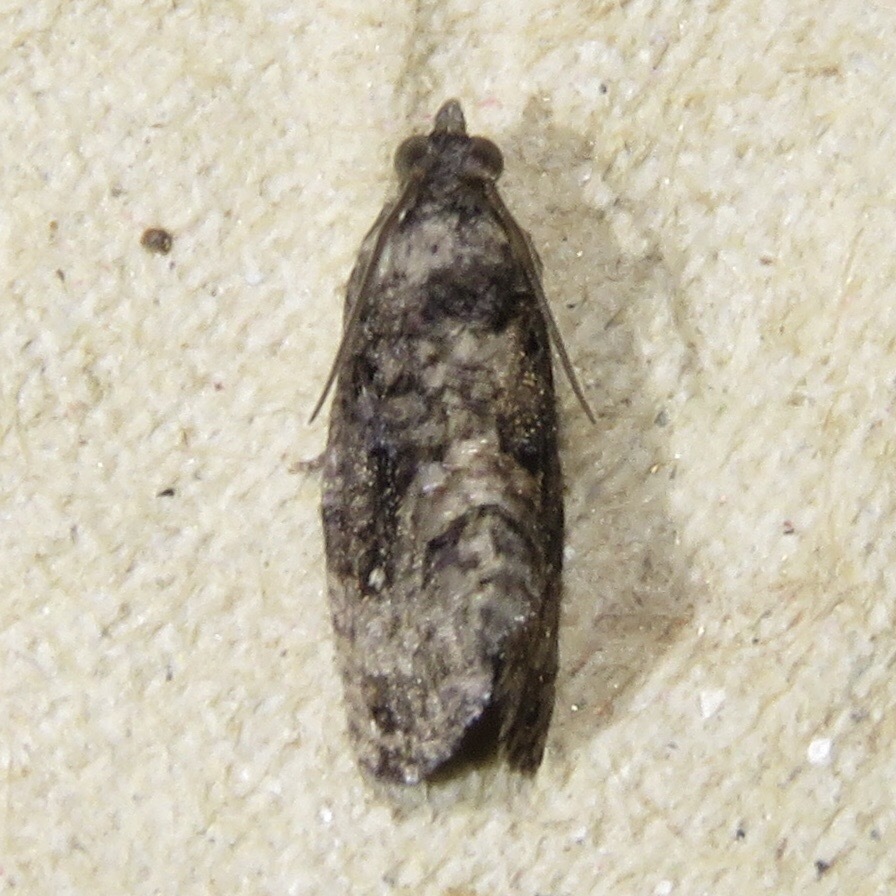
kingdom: Animalia
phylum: Arthropoda
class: Insecta
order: Lepidoptera
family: Tortricidae
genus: Gymnandrosoma
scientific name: Gymnandrosoma punctidiscanum
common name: Dotted ecdytolopha moth
